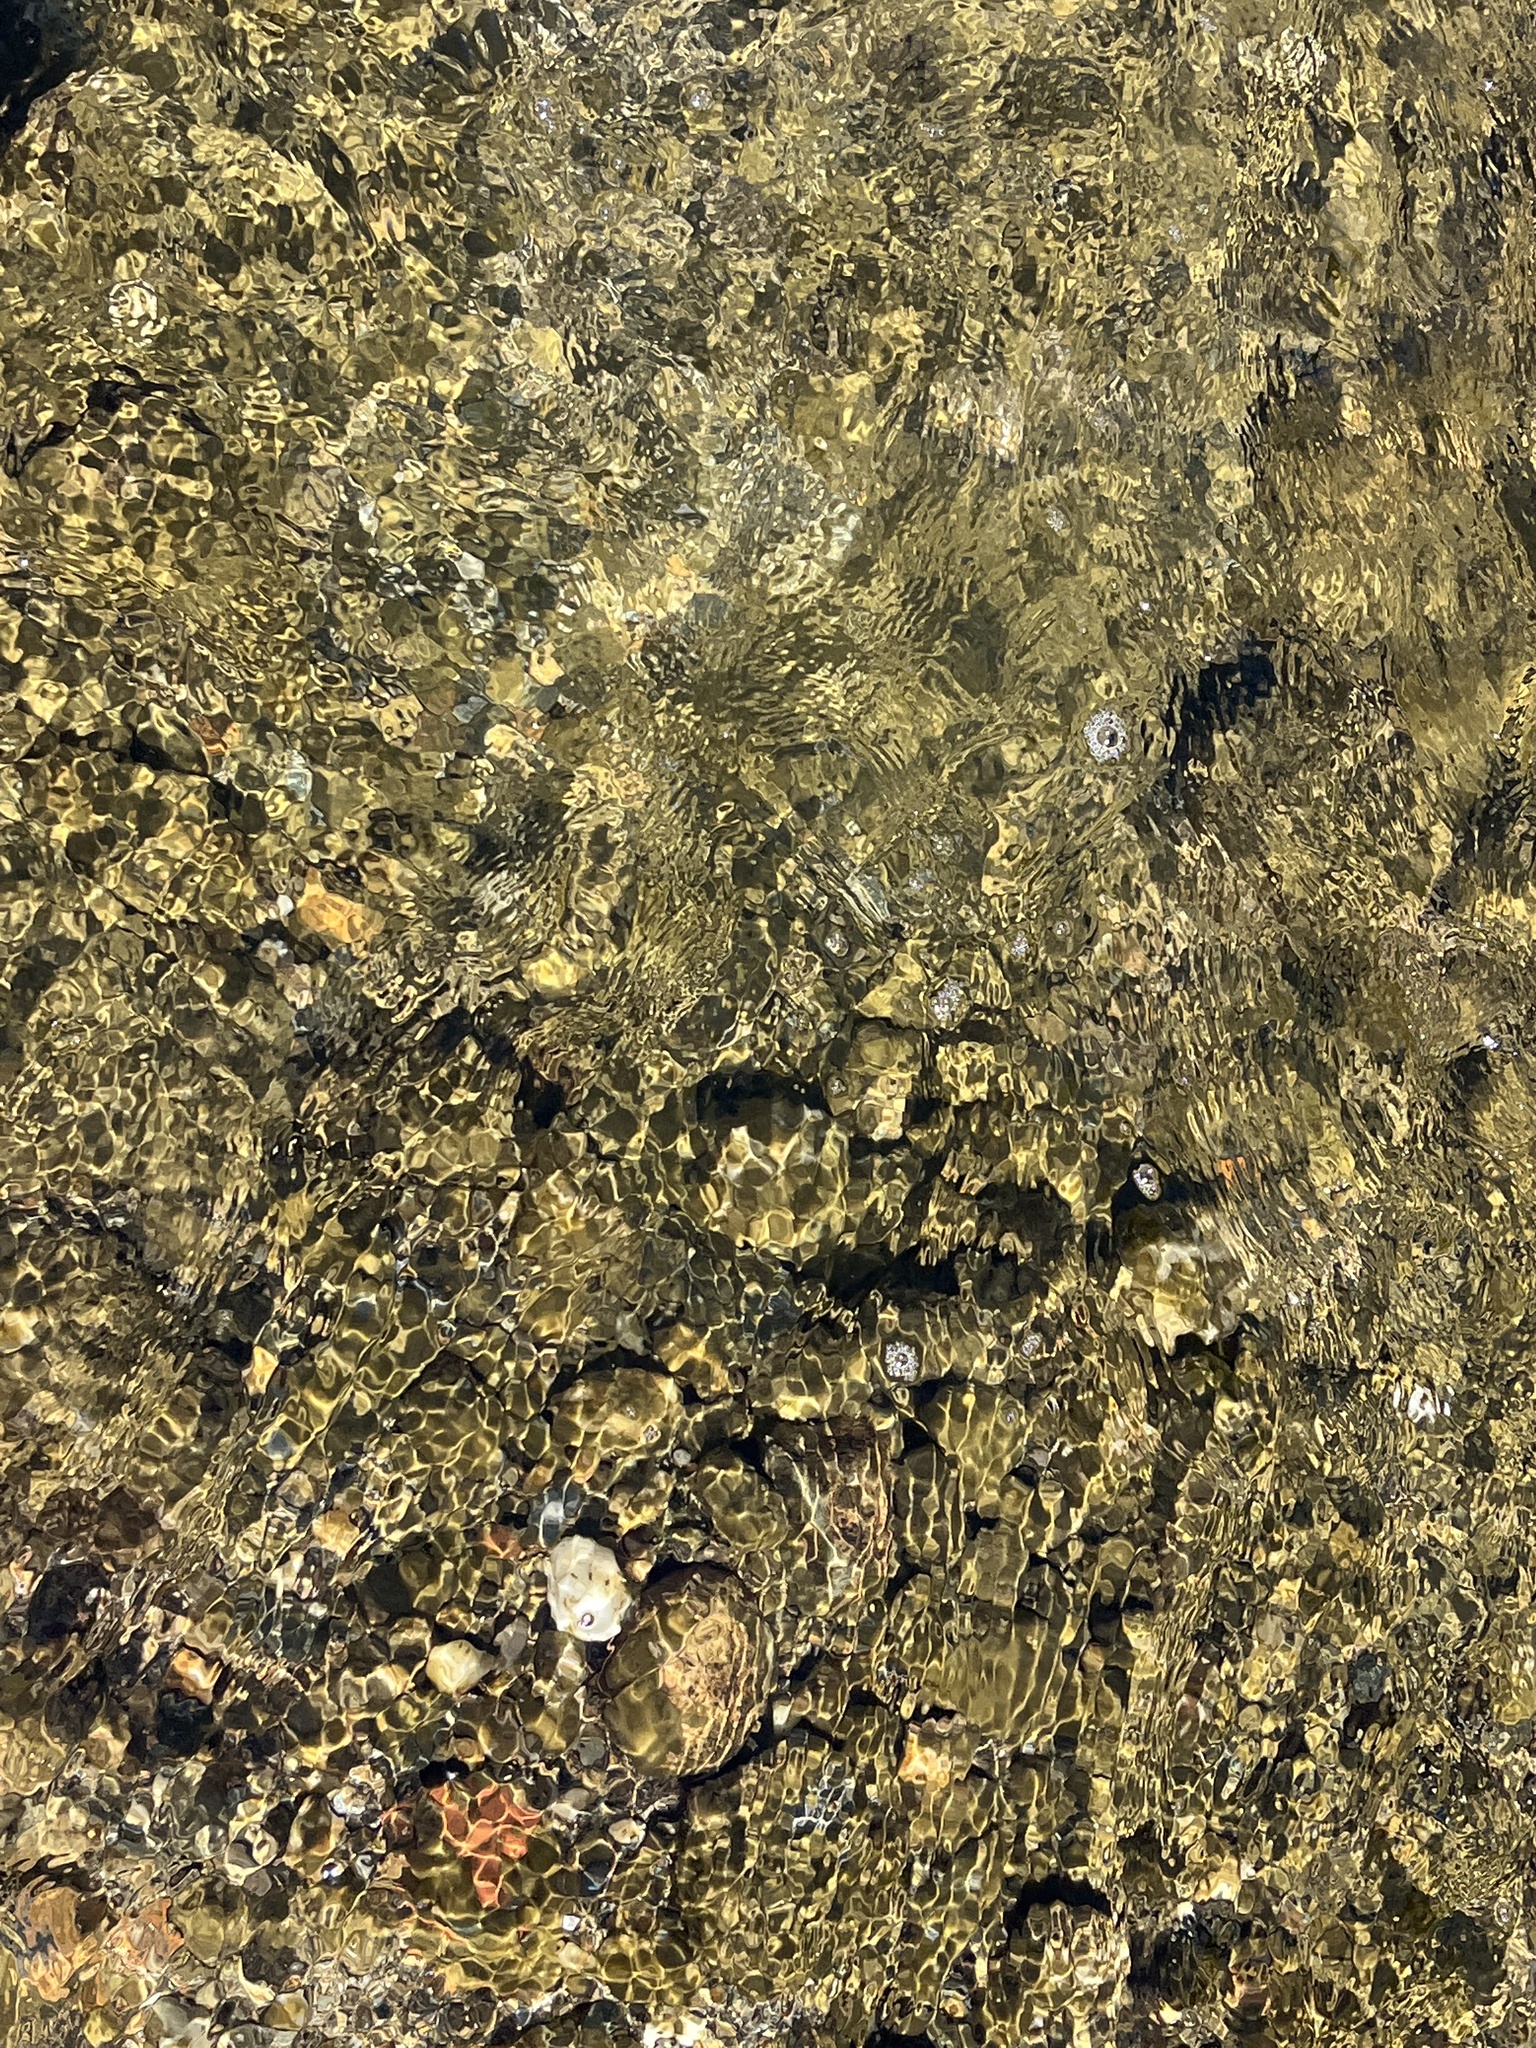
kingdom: Animalia
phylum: Chordata
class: Petromyzonti
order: Petromyzontiformes
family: Petromyzontidae
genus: Petromyzon
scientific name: Petromyzon marinus
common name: Sea lamprey
